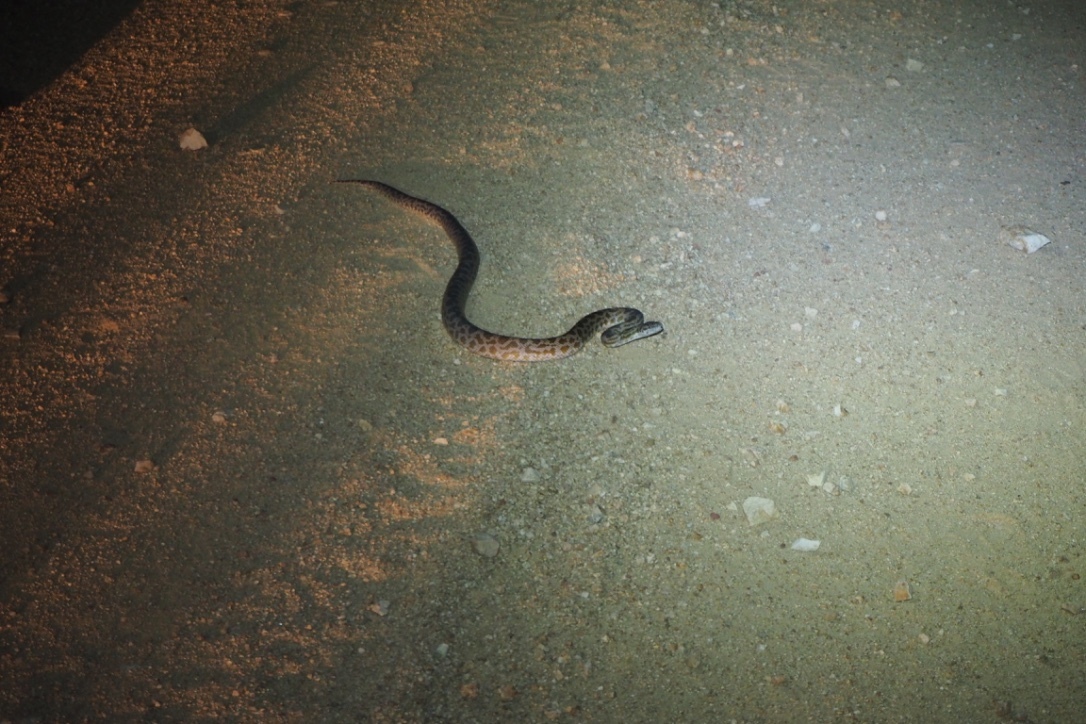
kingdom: Animalia
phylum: Chordata
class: Squamata
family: Pythonidae
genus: Antaresia
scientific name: Antaresia maculosa
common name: Eastern childrens python
